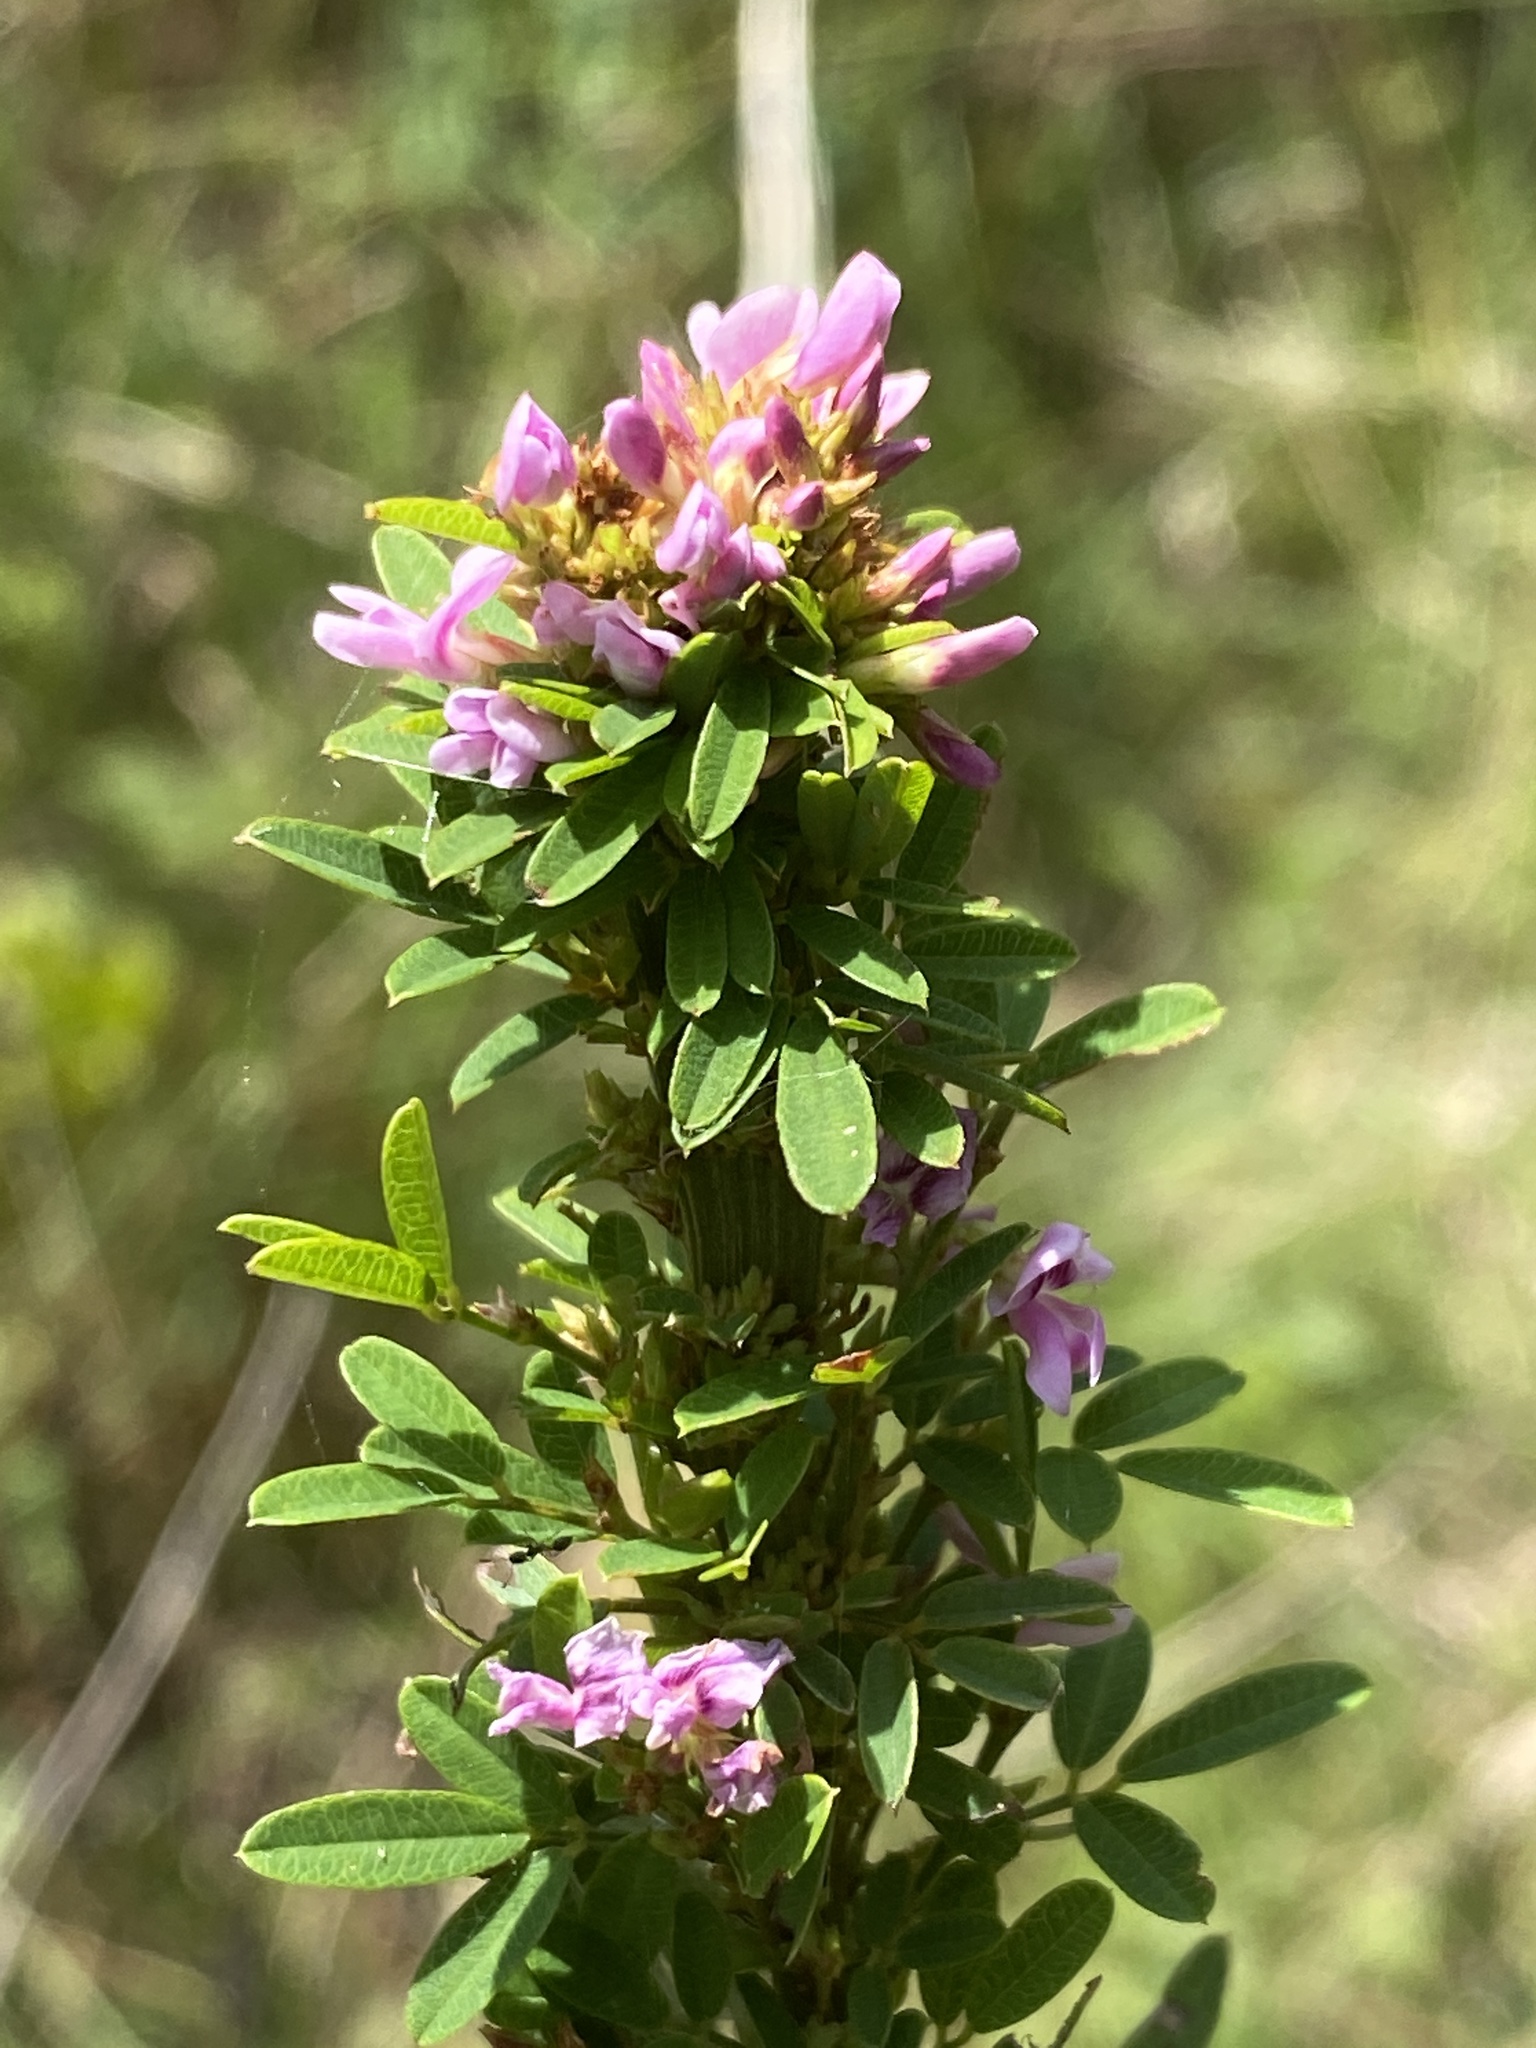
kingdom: Plantae
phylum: Tracheophyta
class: Magnoliopsida
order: Fabales
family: Fabaceae
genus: Lespedeza
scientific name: Lespedeza virginica
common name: Slender bush-clover
